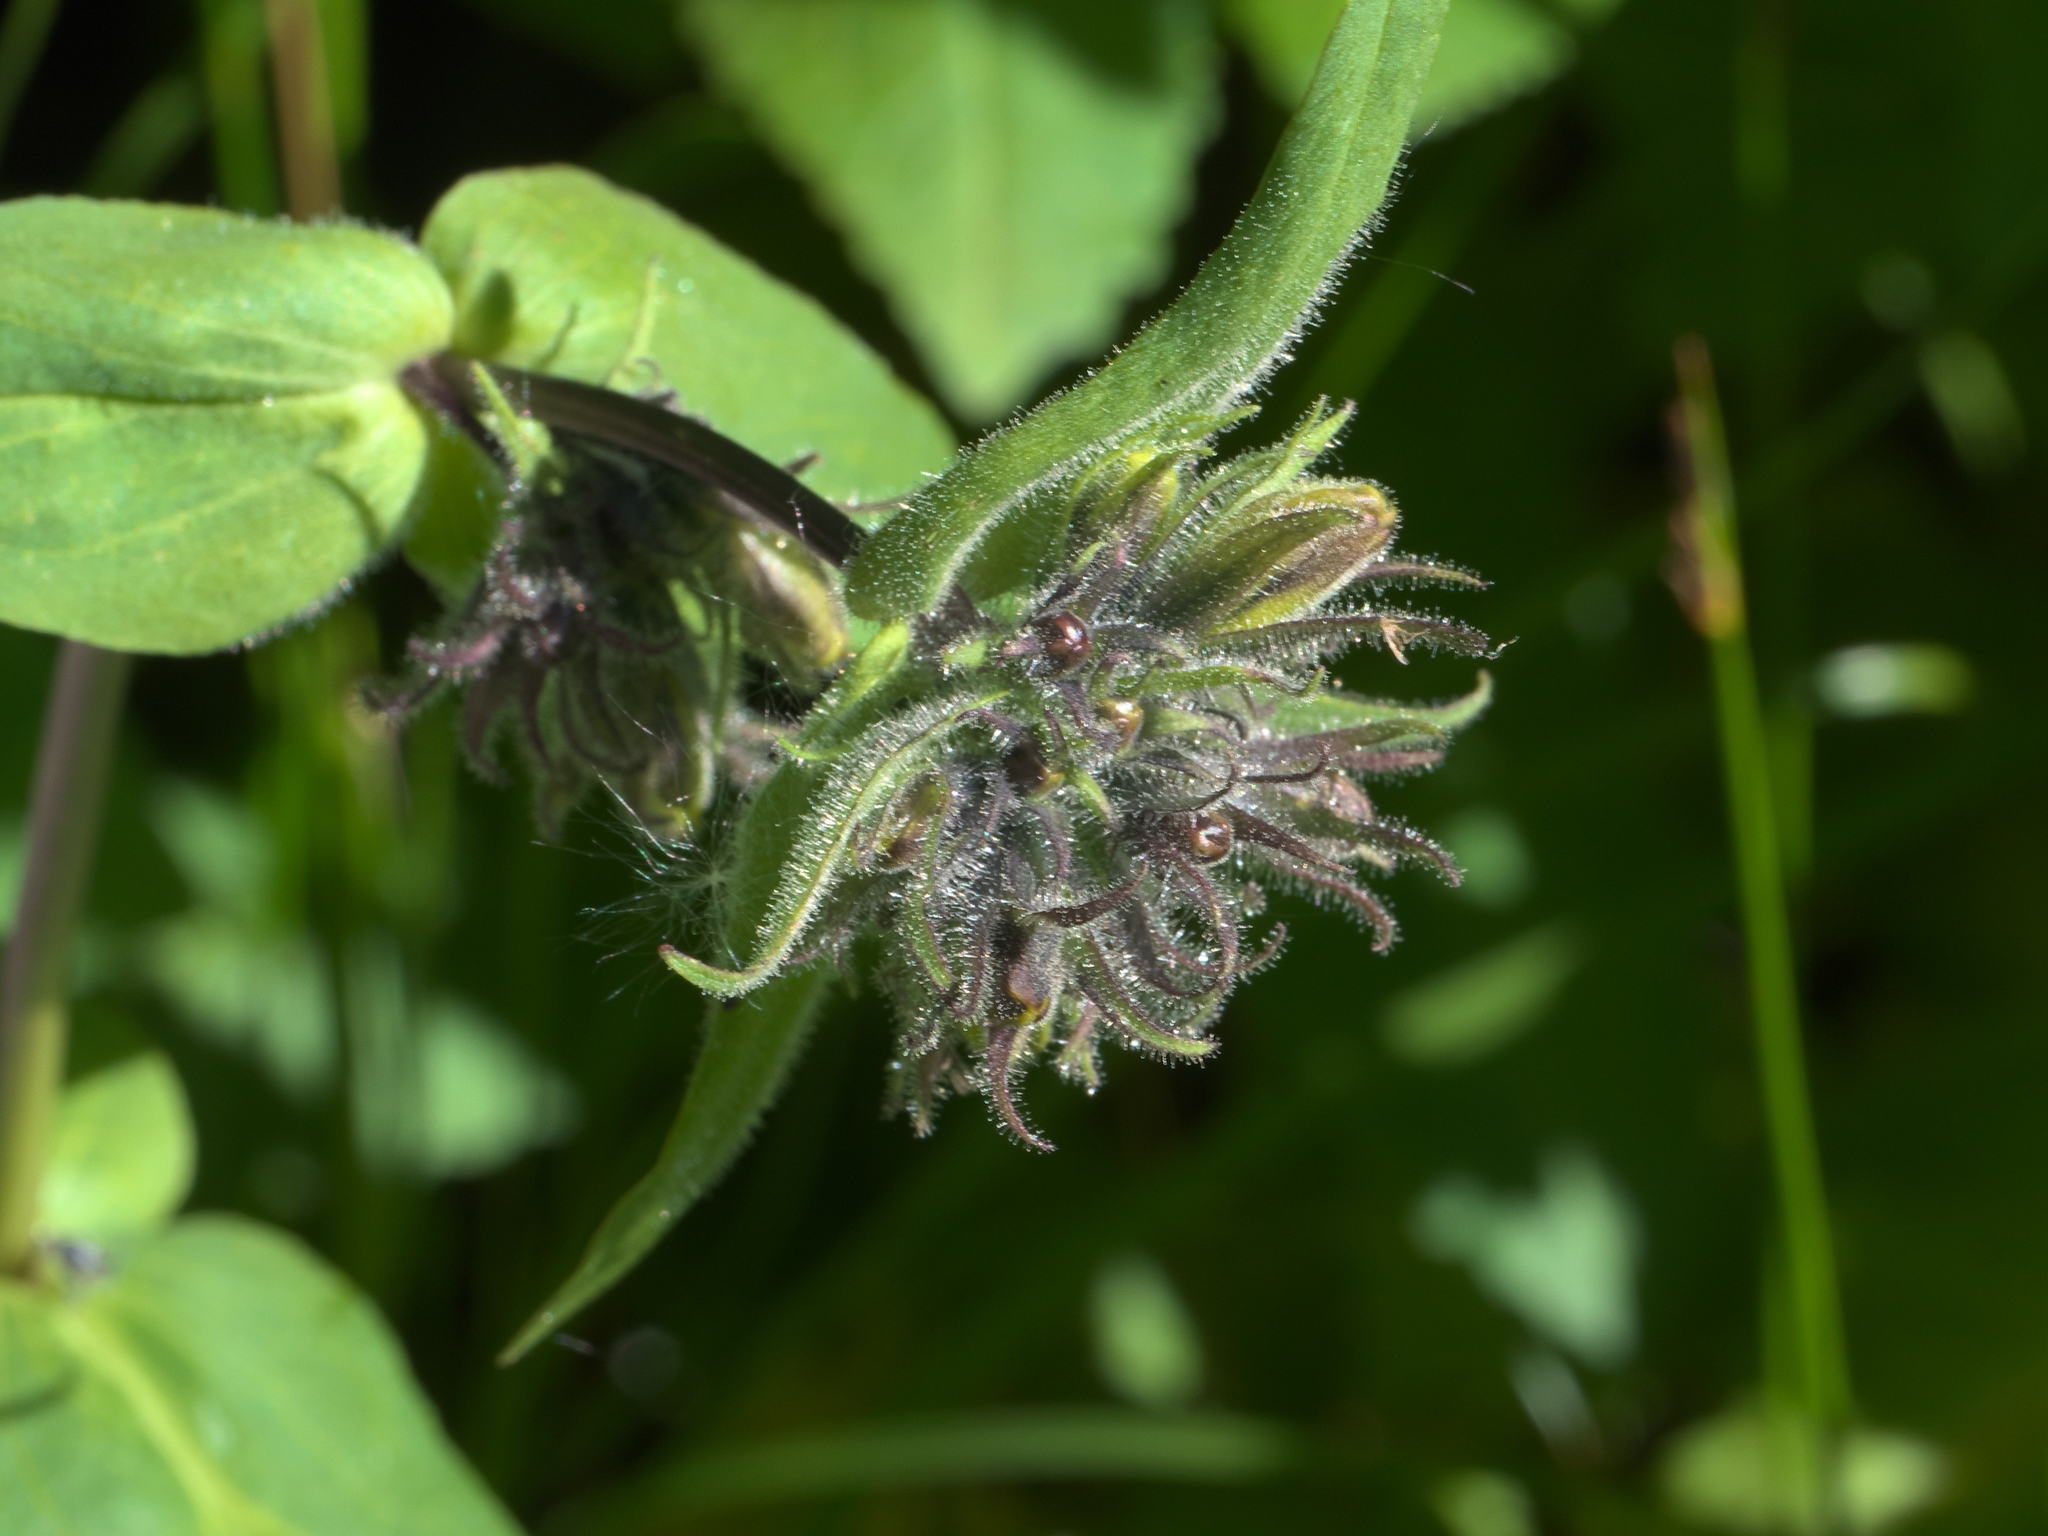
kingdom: Plantae
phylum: Tracheophyta
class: Magnoliopsida
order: Lamiales
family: Plantaginaceae
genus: Penstemon
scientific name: Penstemon whippleanus
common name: Whipple's penstemon
